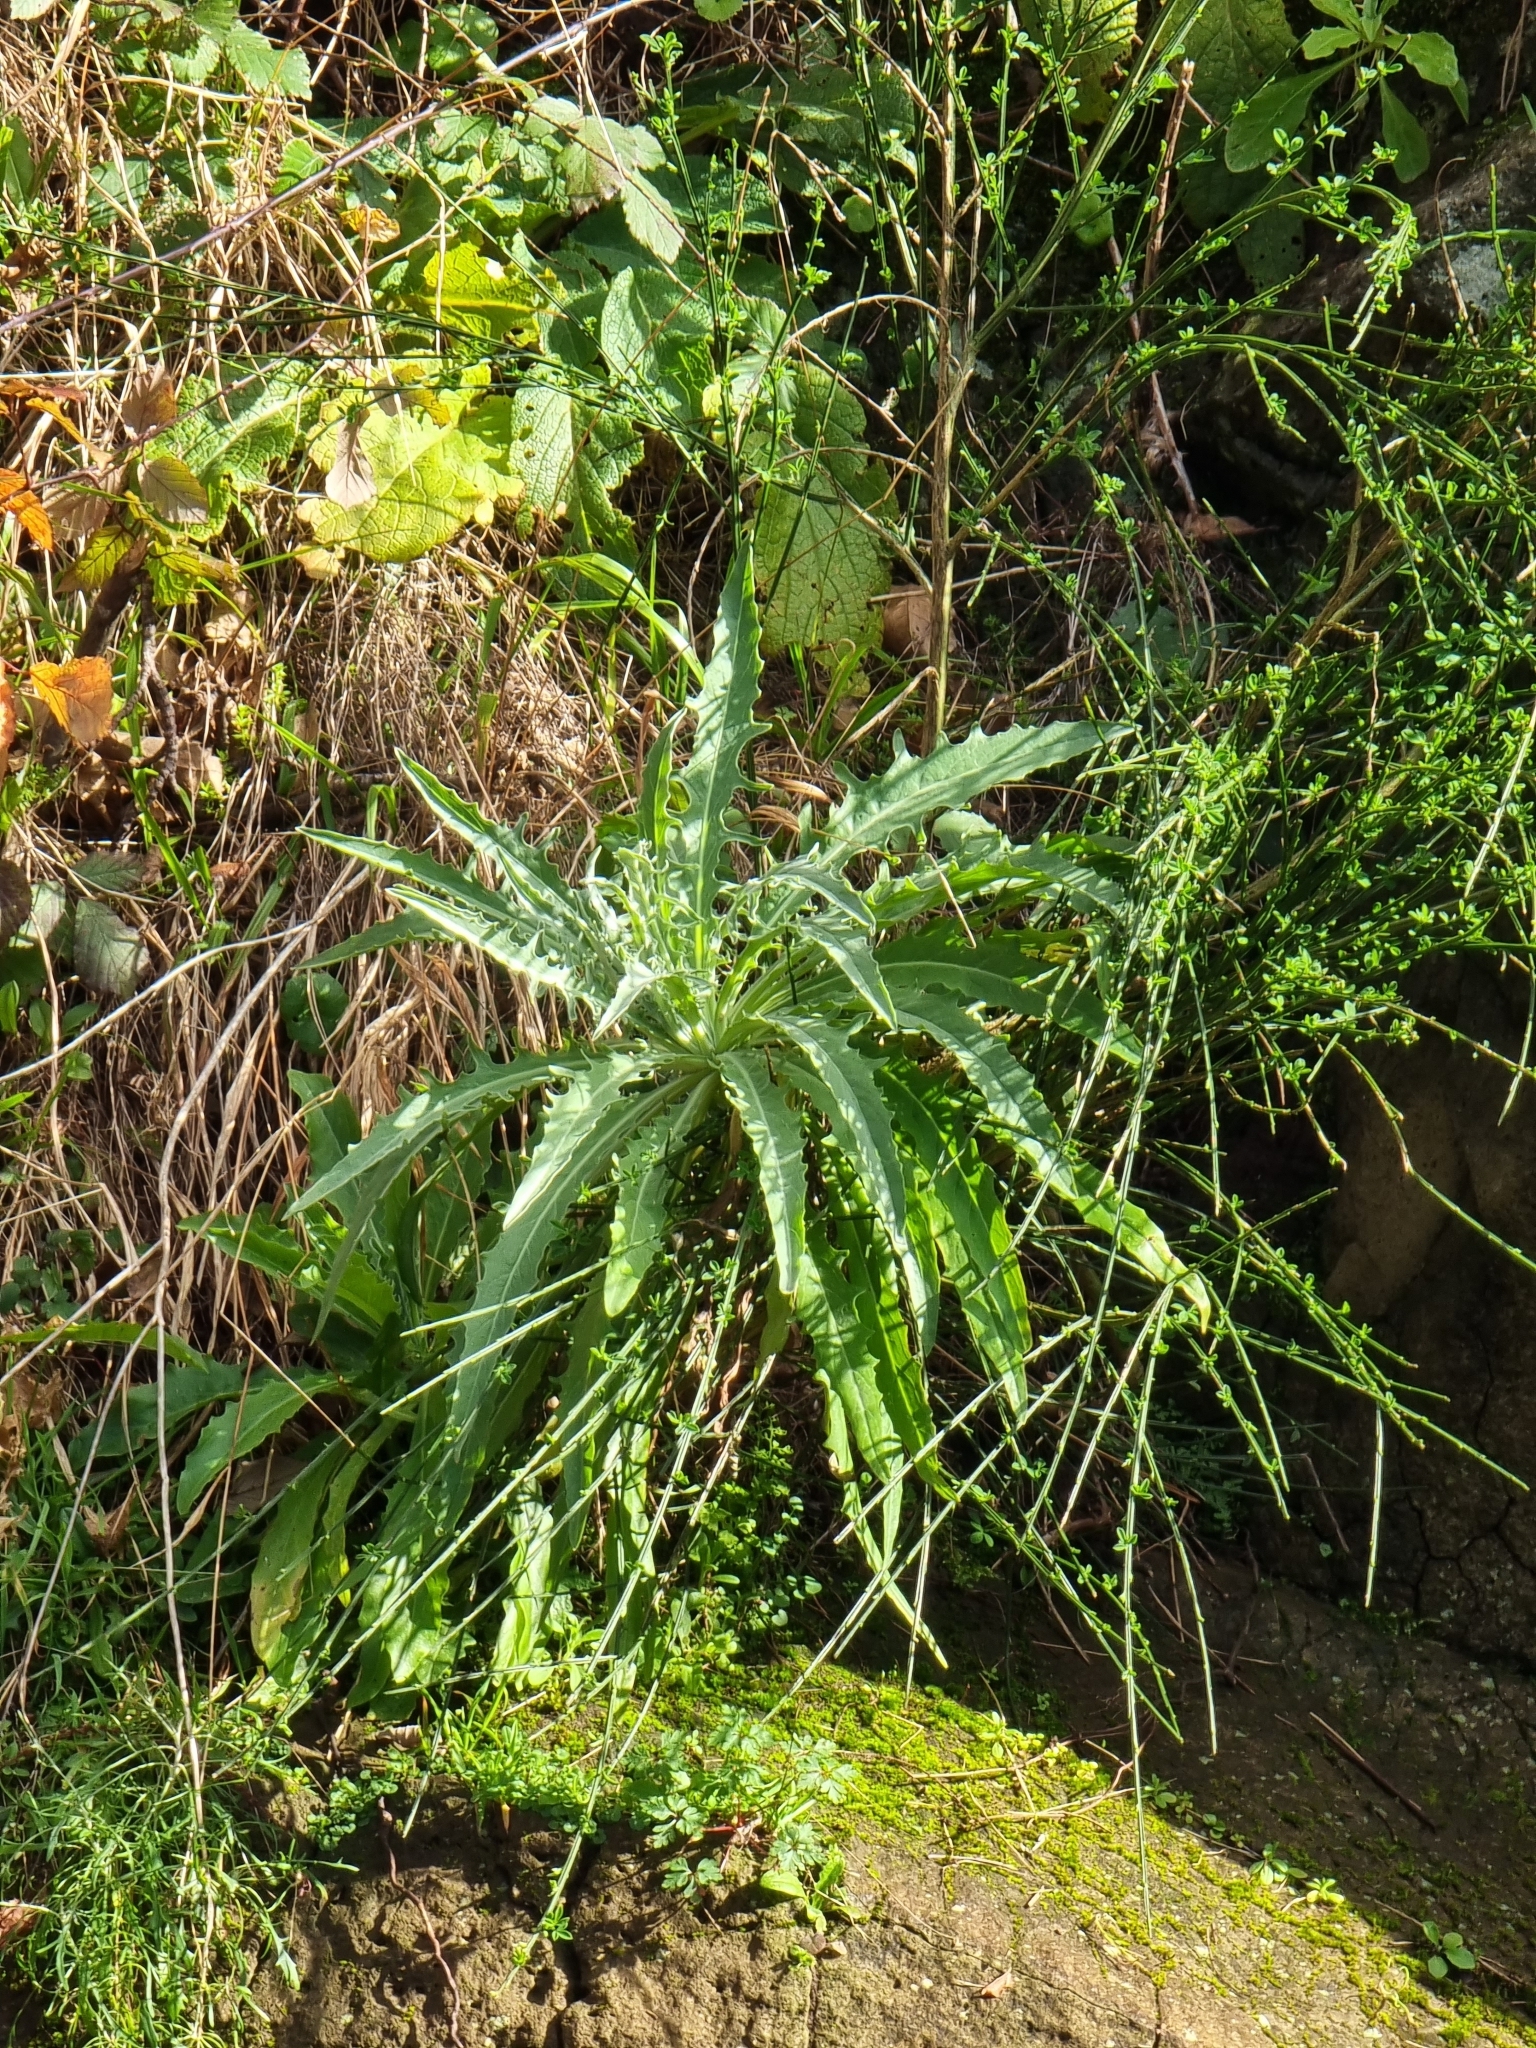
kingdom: Plantae
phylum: Tracheophyta
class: Magnoliopsida
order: Asterales
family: Asteraceae
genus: Andryala
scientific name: Andryala glandulosa
